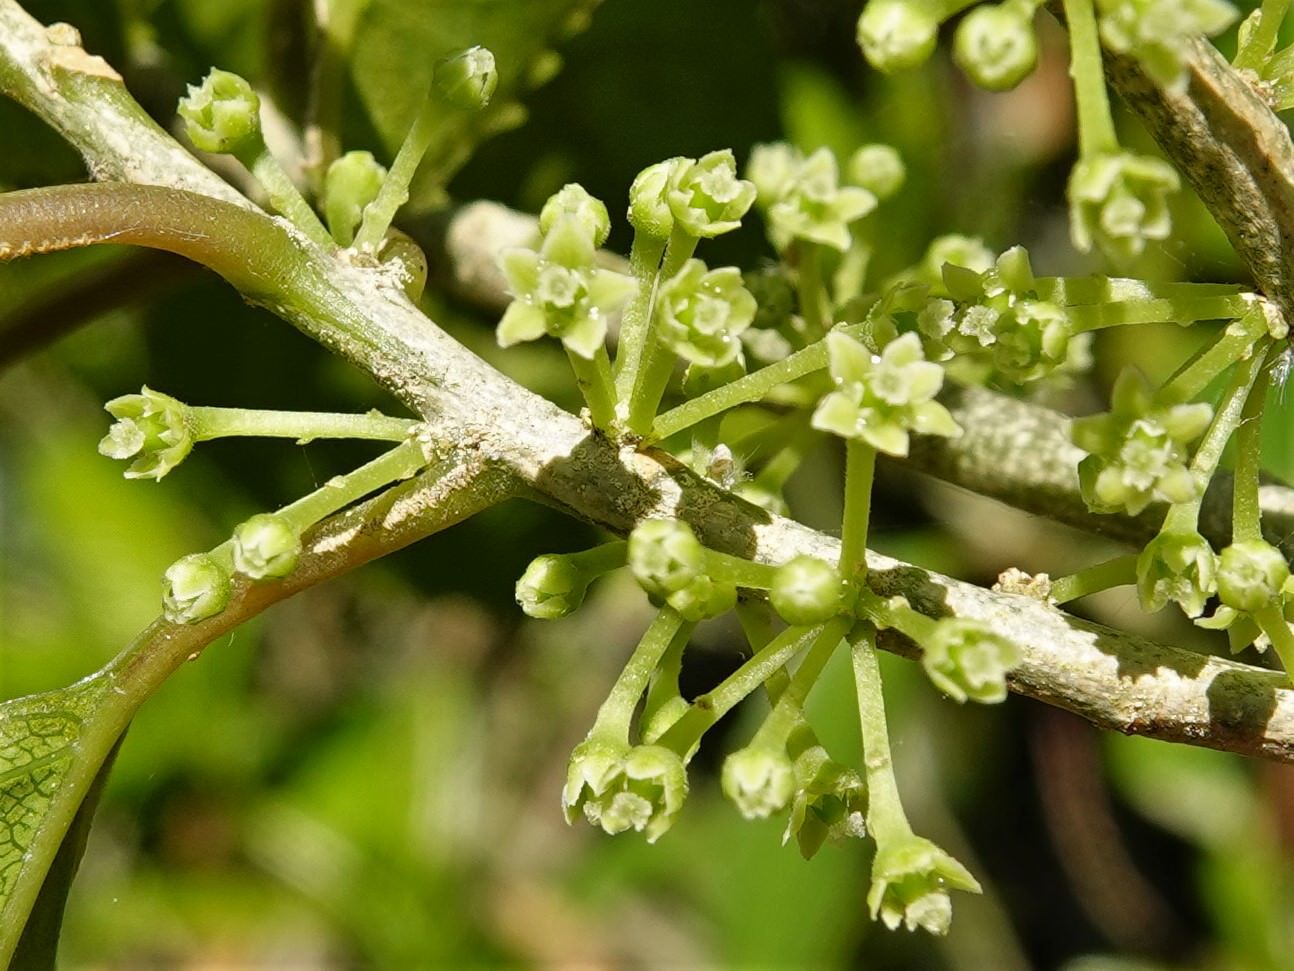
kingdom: Plantae
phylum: Tracheophyta
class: Magnoliopsida
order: Malpighiales
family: Violaceae
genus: Melicytus
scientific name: Melicytus ramiflorus
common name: Mahoe
